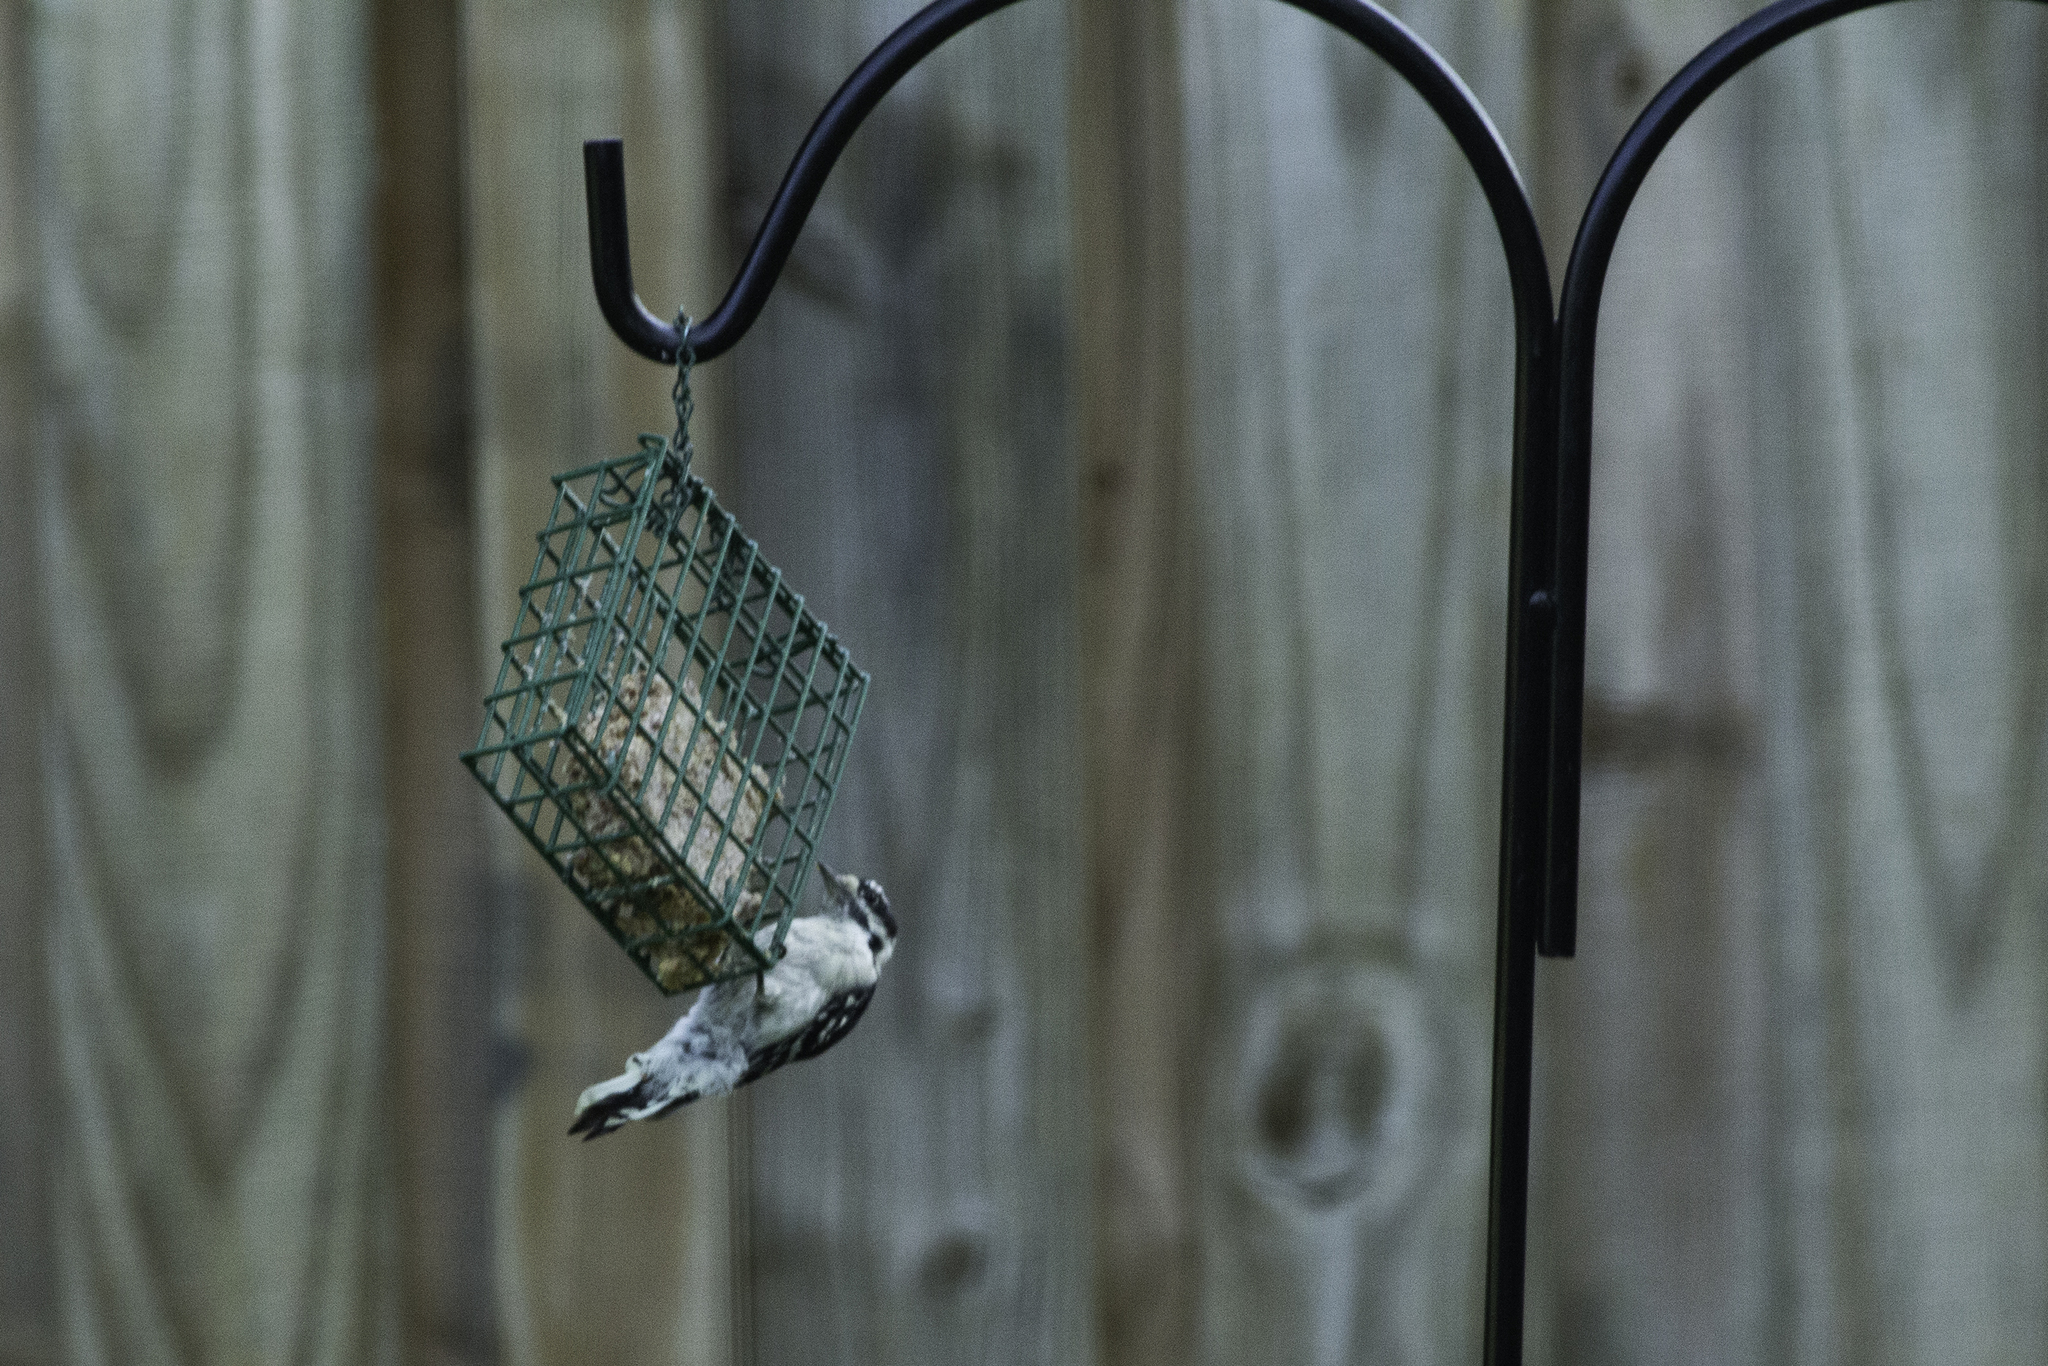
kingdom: Animalia
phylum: Chordata
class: Aves
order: Piciformes
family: Picidae
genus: Dryobates
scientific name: Dryobates pubescens
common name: Downy woodpecker
